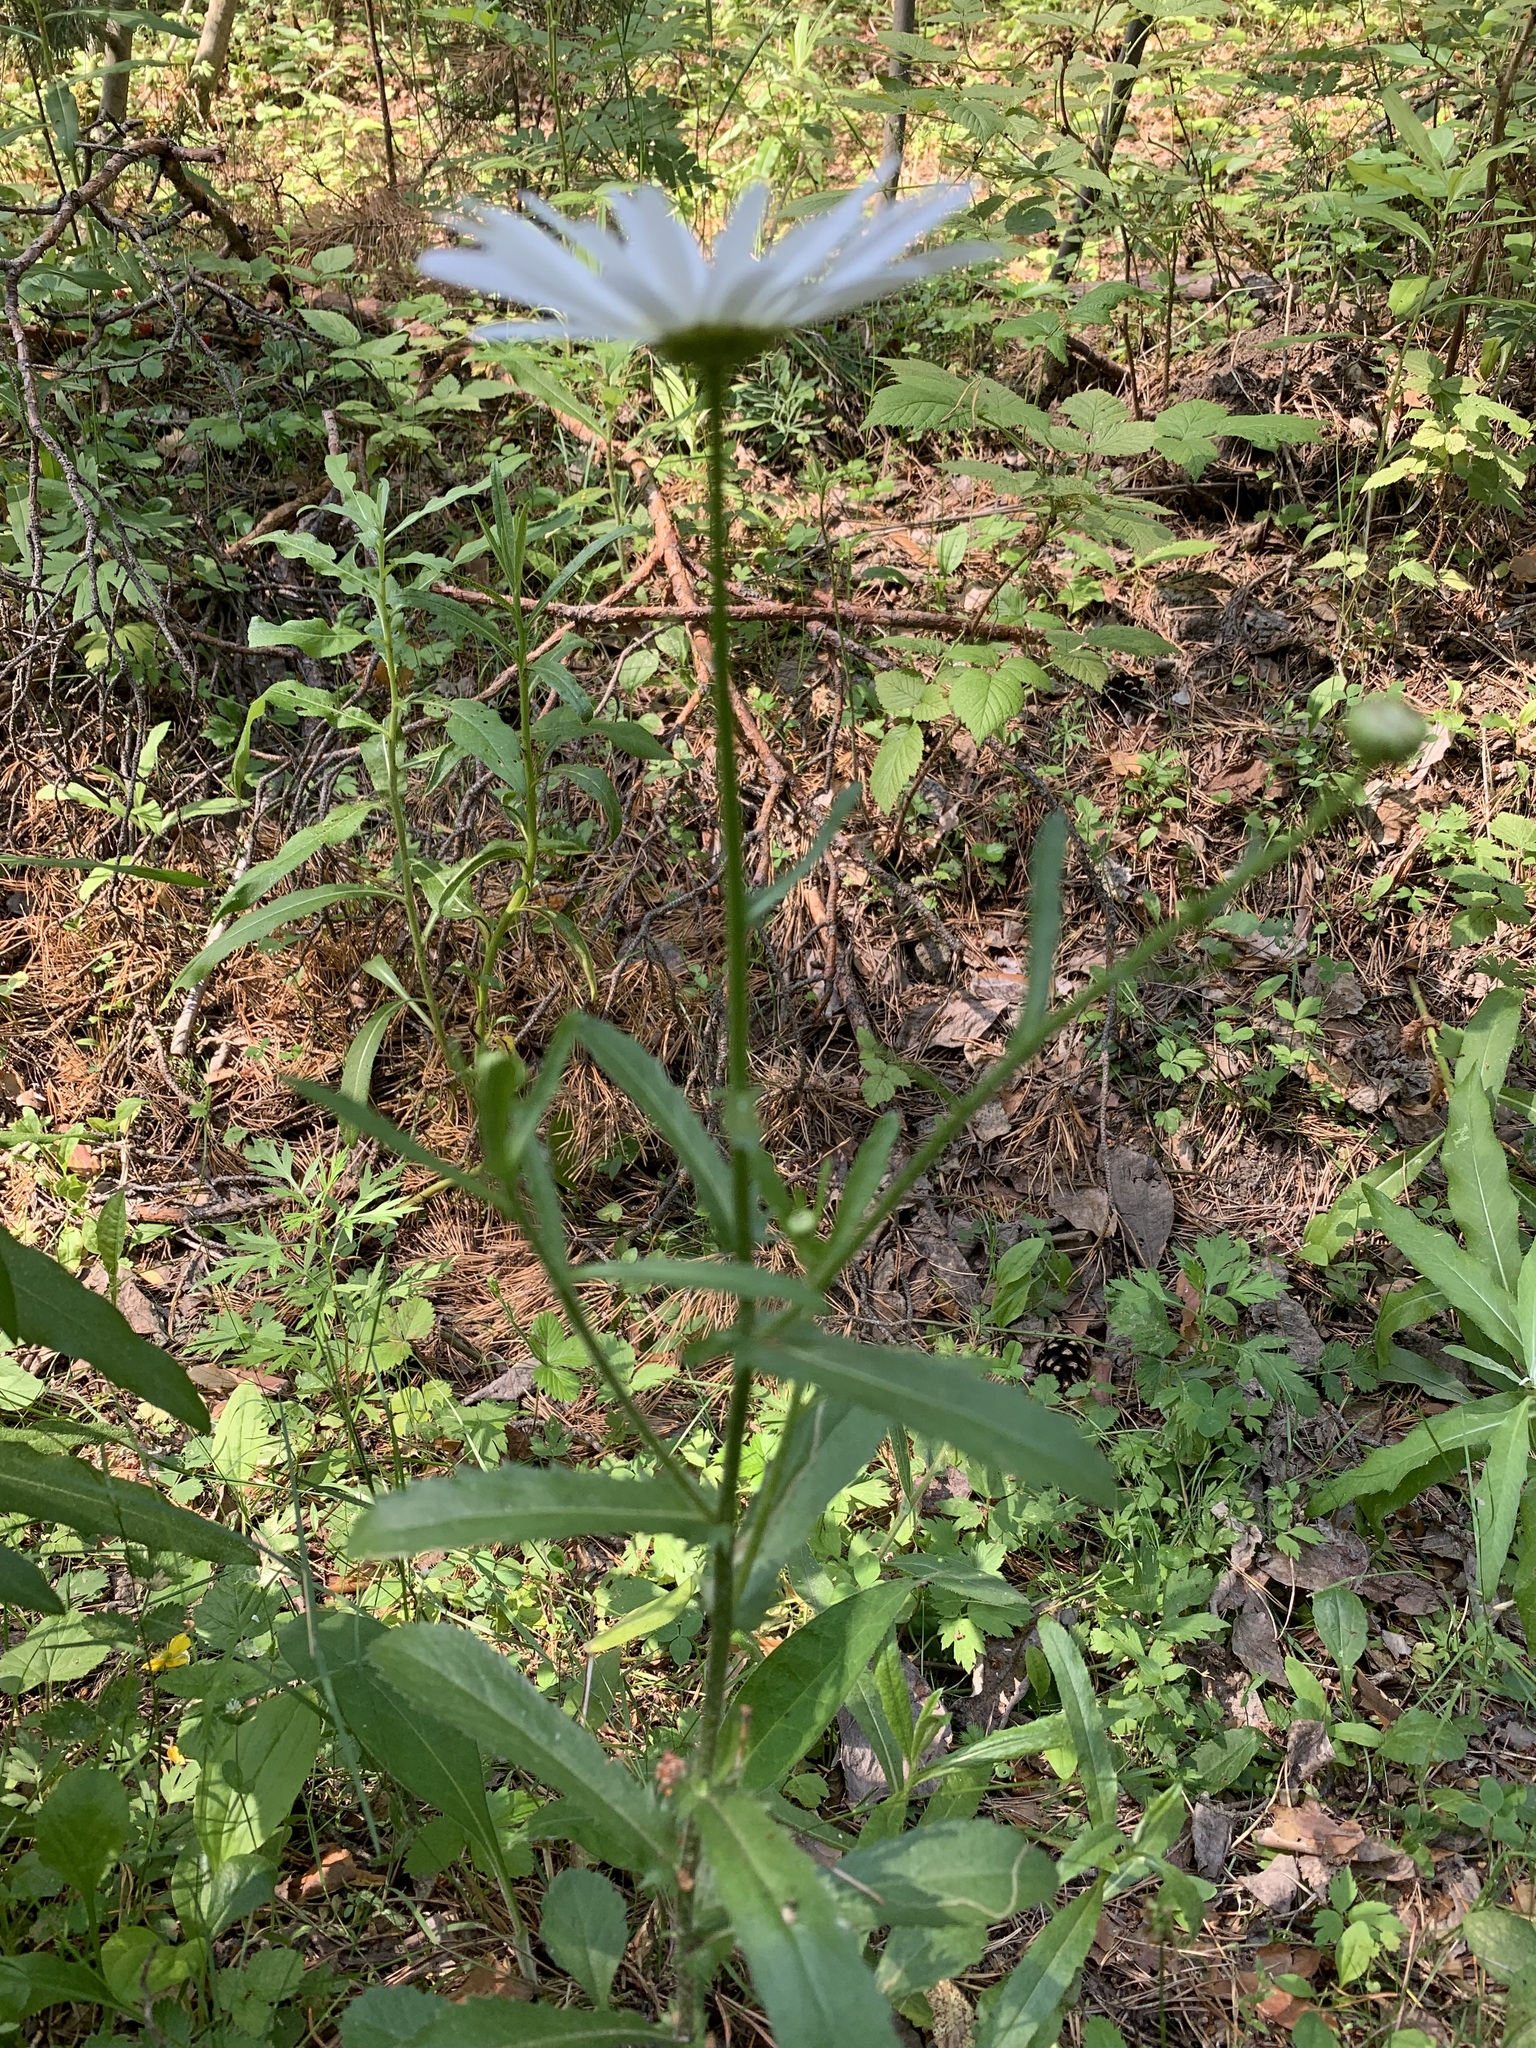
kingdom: Plantae
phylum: Tracheophyta
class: Magnoliopsida
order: Asterales
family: Asteraceae
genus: Leucanthemum
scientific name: Leucanthemum ircutianum
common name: Daisy
